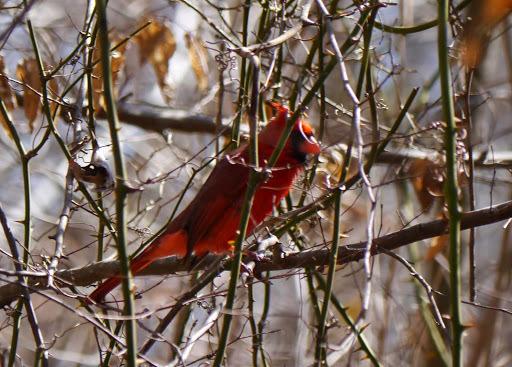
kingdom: Animalia
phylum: Chordata
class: Aves
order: Passeriformes
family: Cardinalidae
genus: Cardinalis
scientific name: Cardinalis cardinalis
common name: Northern cardinal
